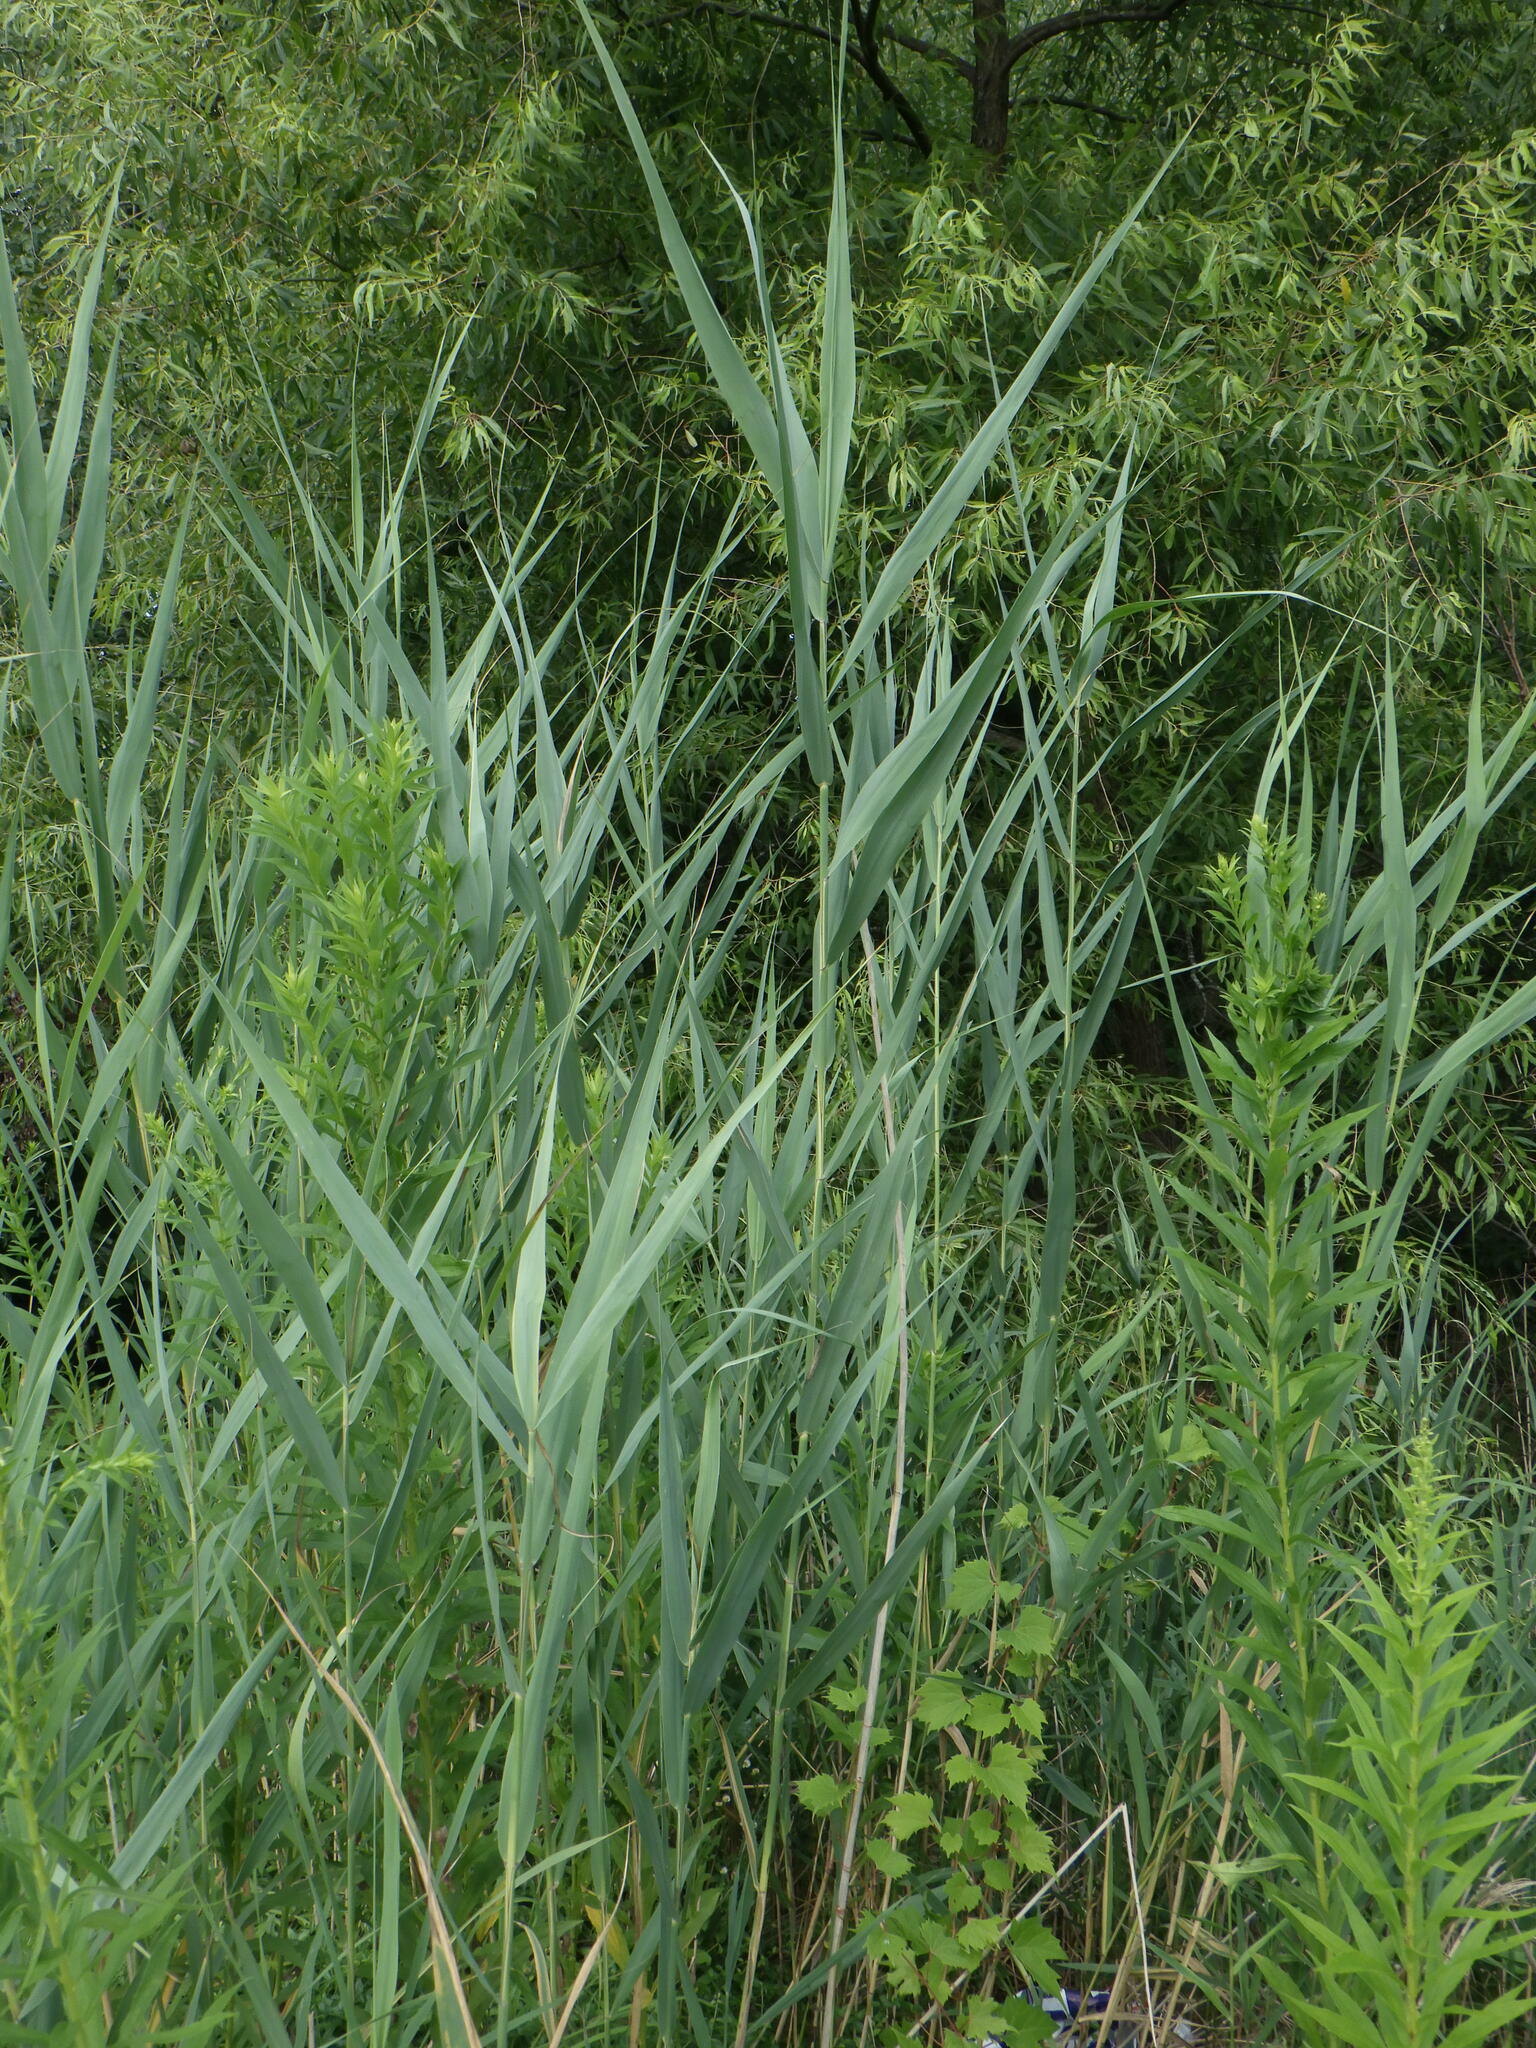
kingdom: Plantae
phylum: Tracheophyta
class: Liliopsida
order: Poales
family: Poaceae
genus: Phragmites
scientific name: Phragmites australis
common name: Common reed
